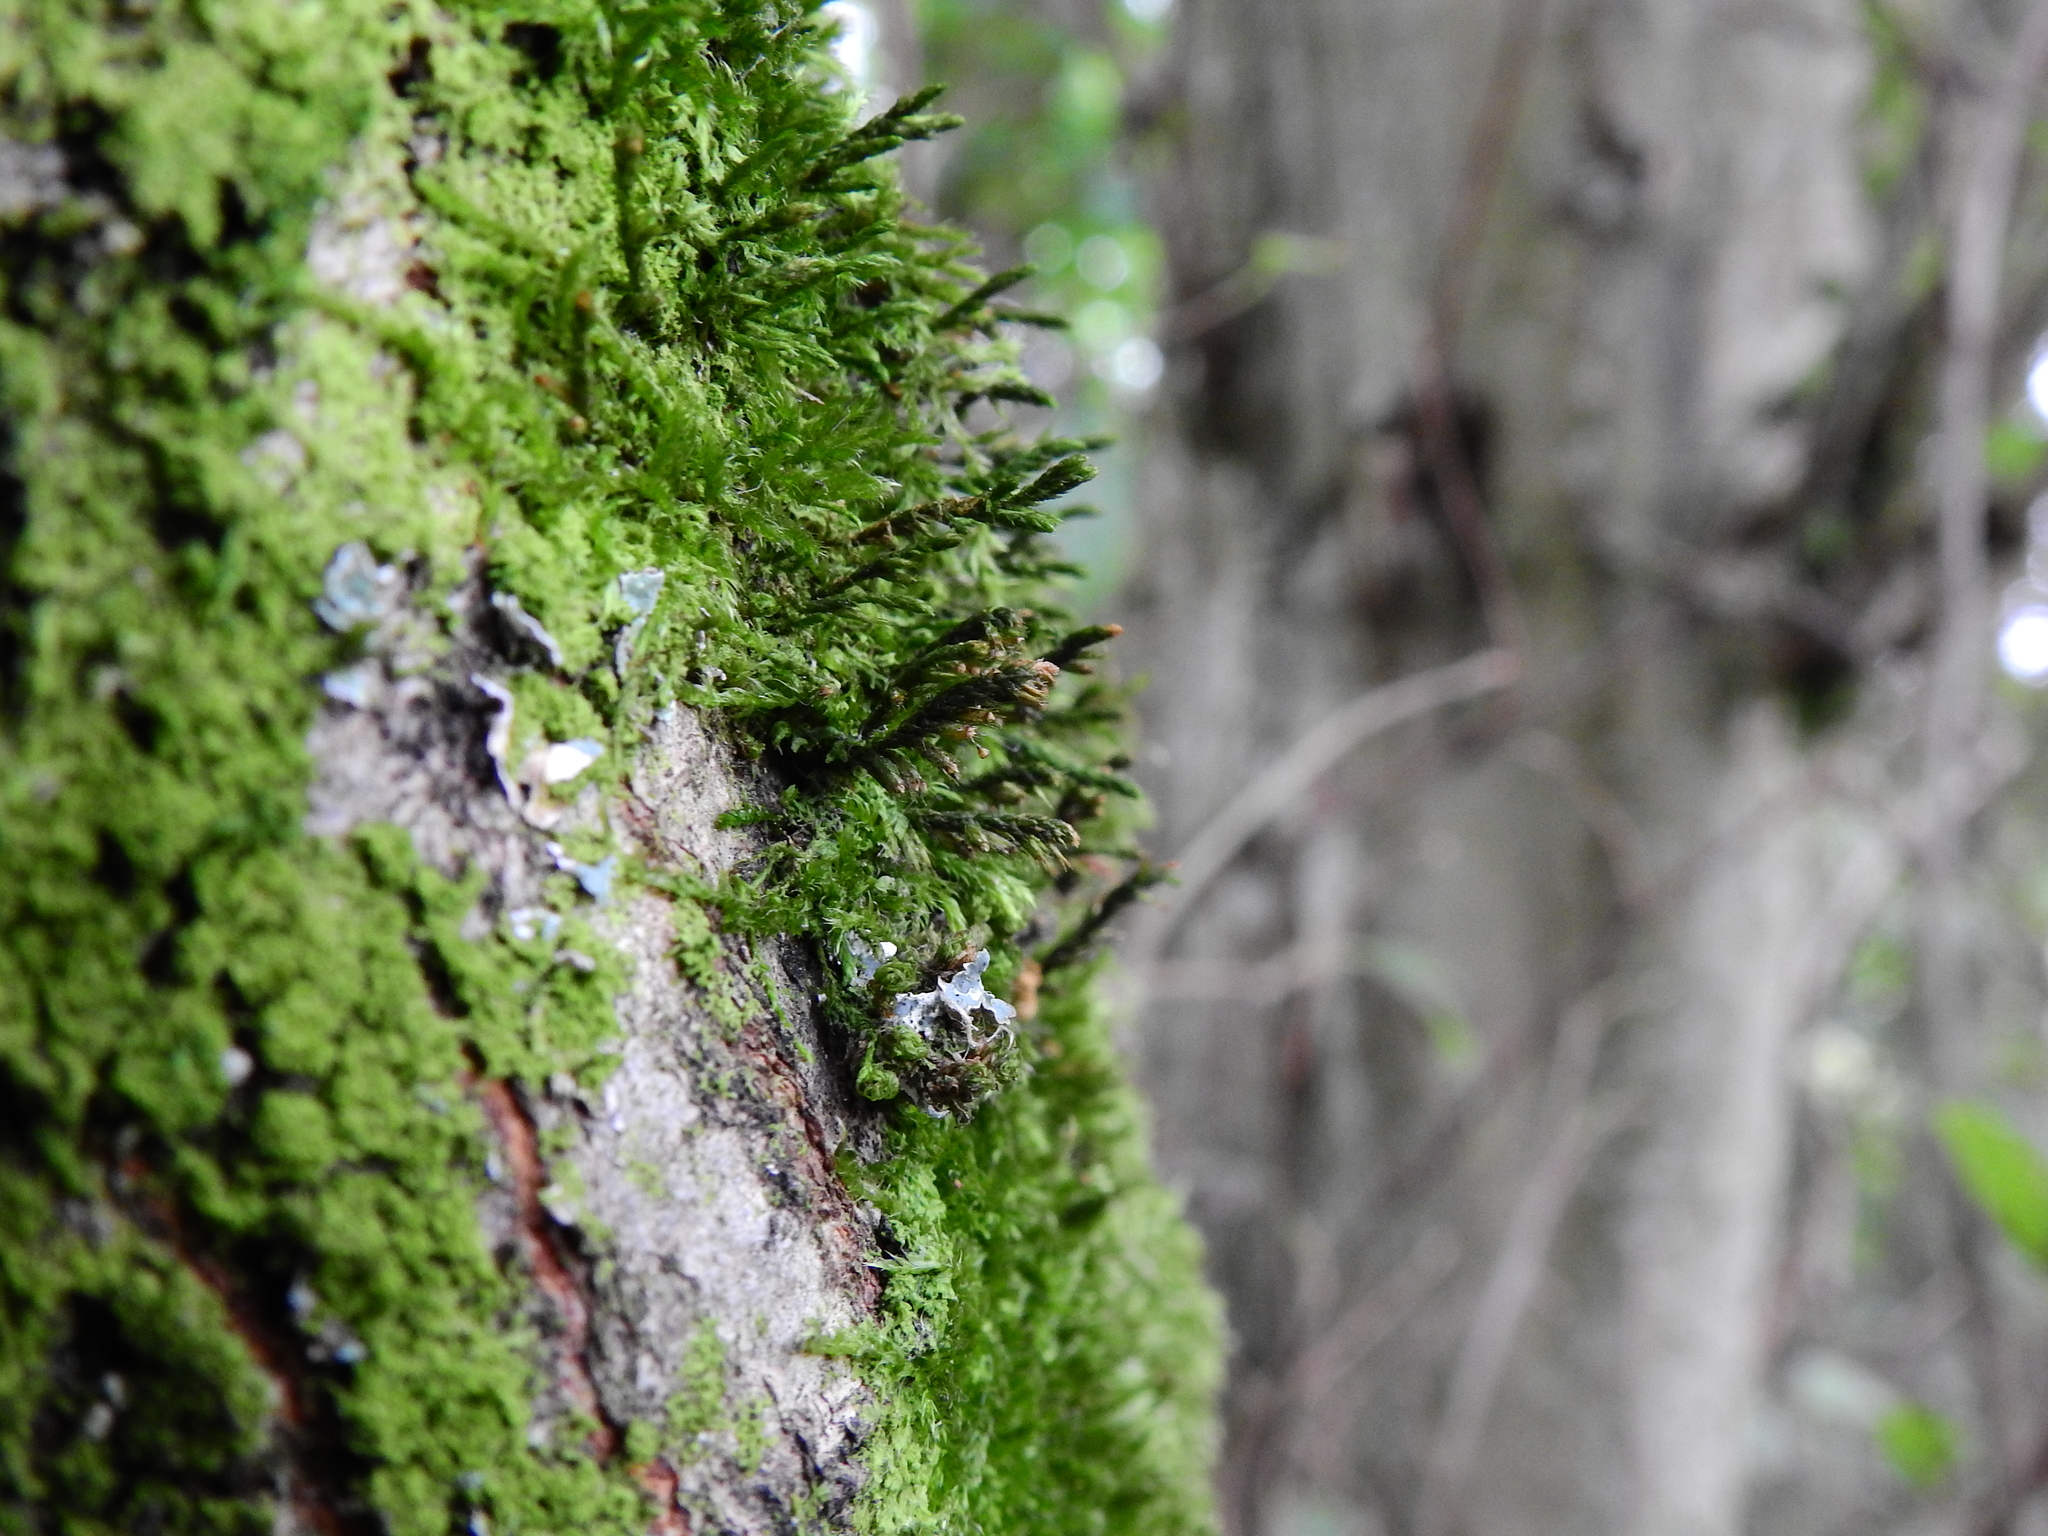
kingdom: Plantae
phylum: Bryophyta
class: Bryopsida
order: Hypnales
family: Cryphaeaceae
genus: Cryphaea
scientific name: Cryphaea heteromalla
